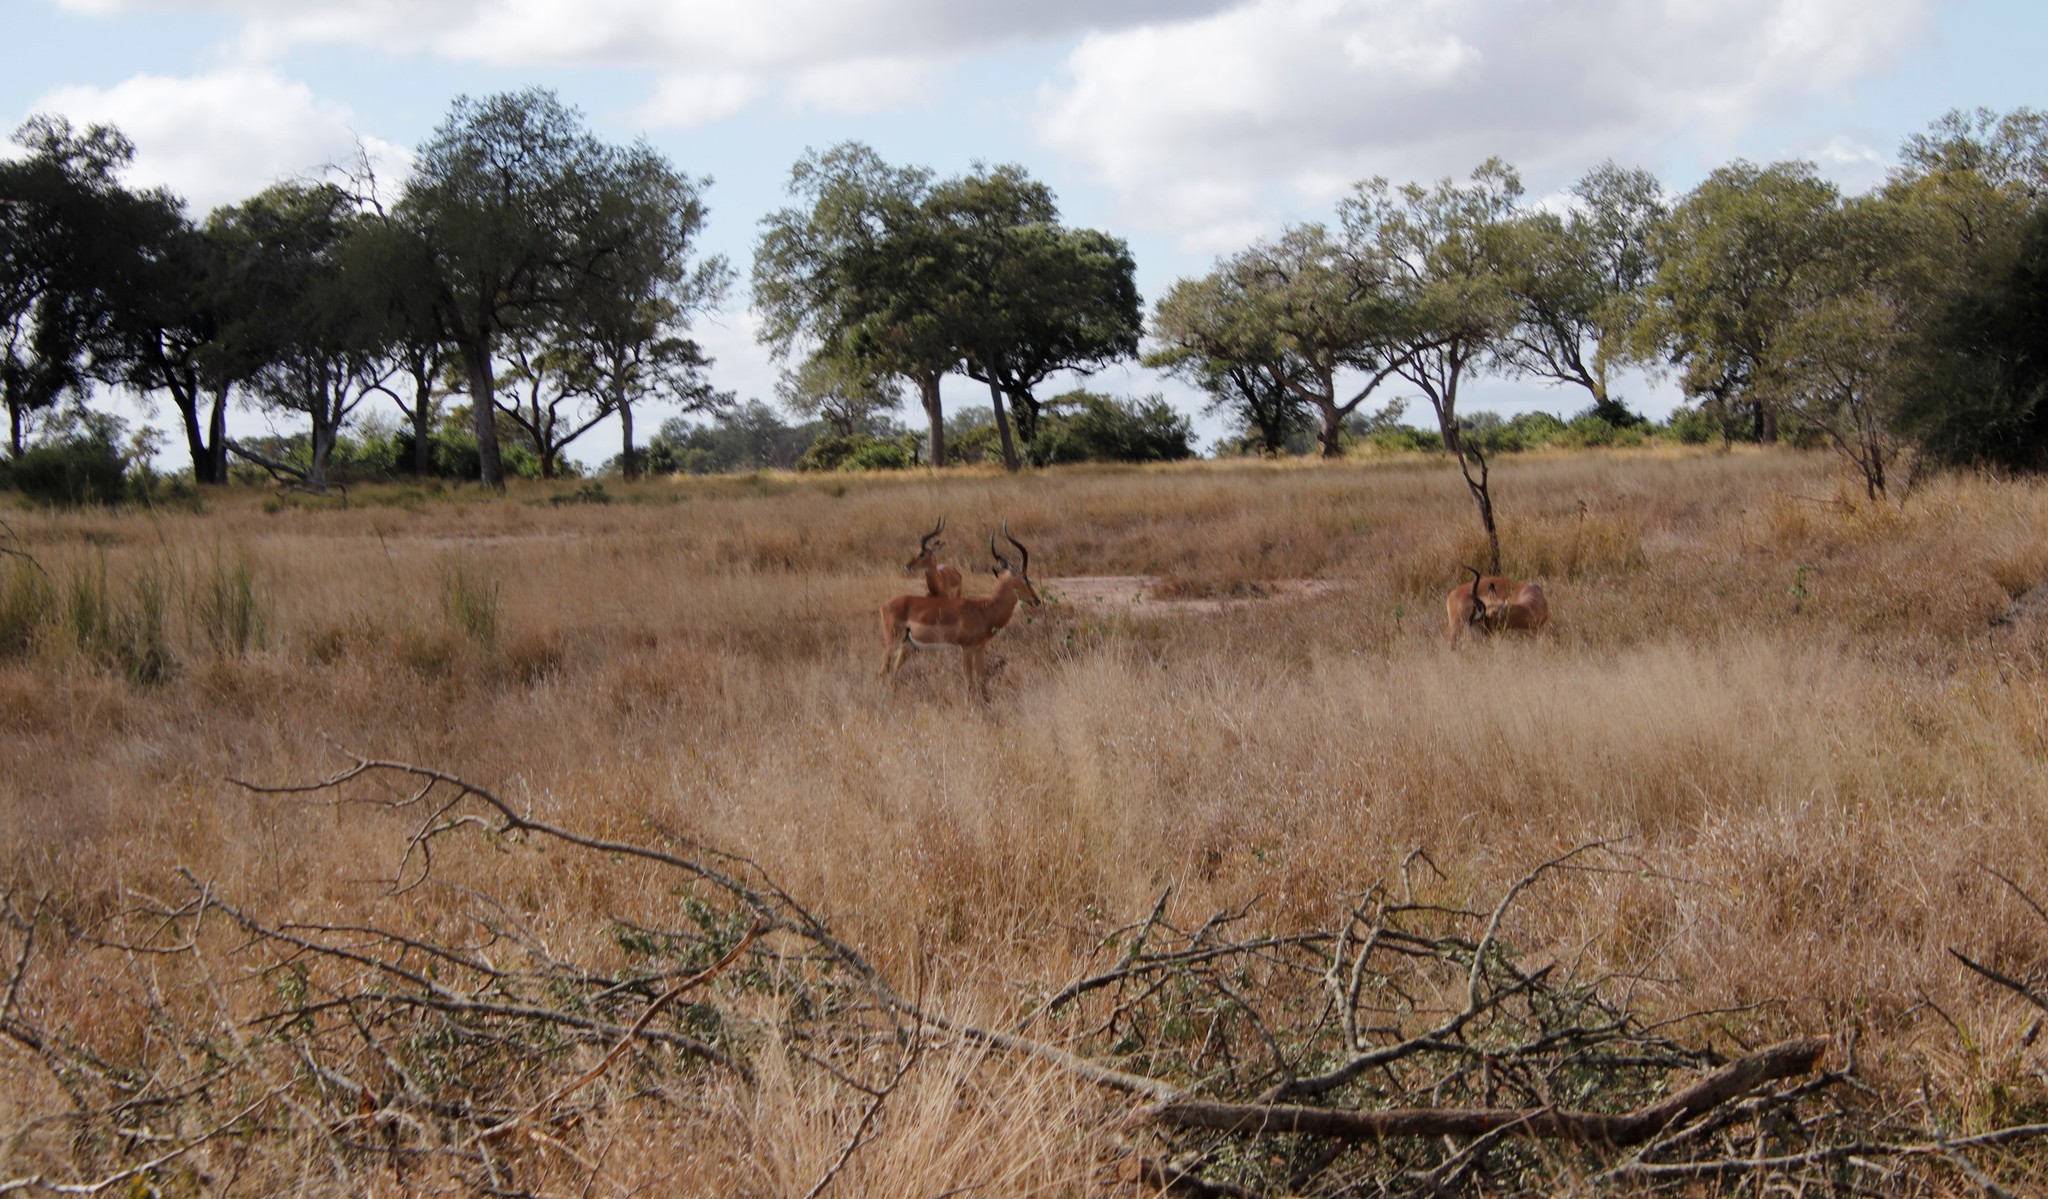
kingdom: Animalia
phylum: Chordata
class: Mammalia
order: Artiodactyla
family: Bovidae
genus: Aepyceros
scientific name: Aepyceros melampus
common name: Impala
